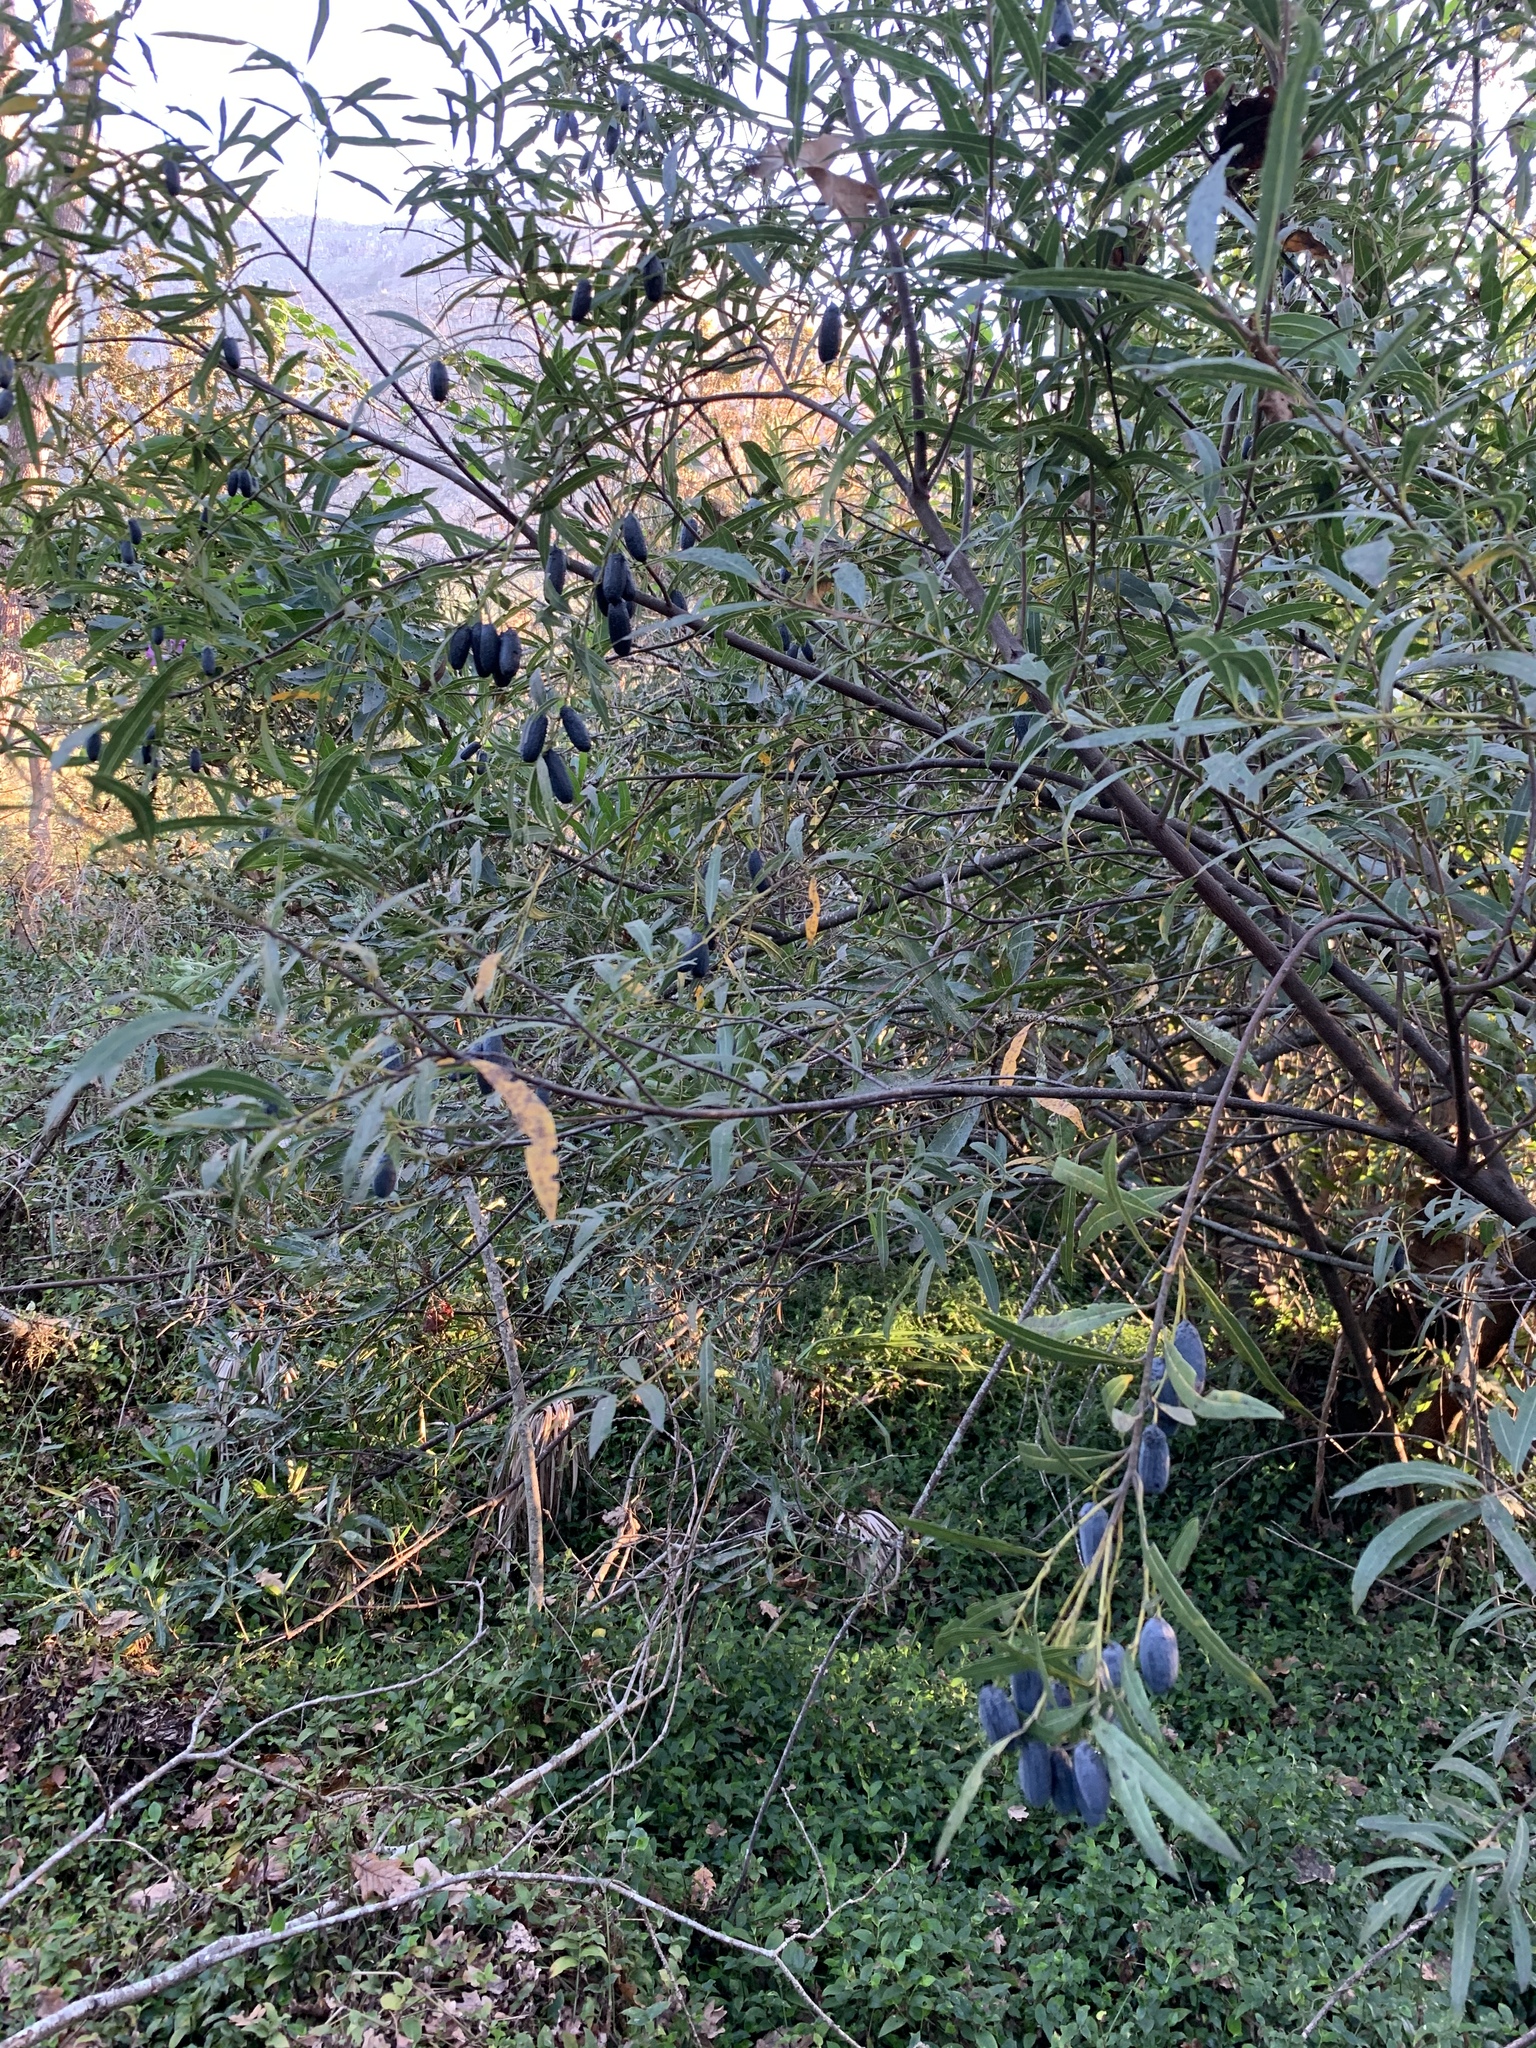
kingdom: Plantae
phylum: Tracheophyta
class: Magnoliopsida
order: Laurales
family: Lauraceae
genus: Cryptocarya
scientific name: Cryptocarya angustifolia
